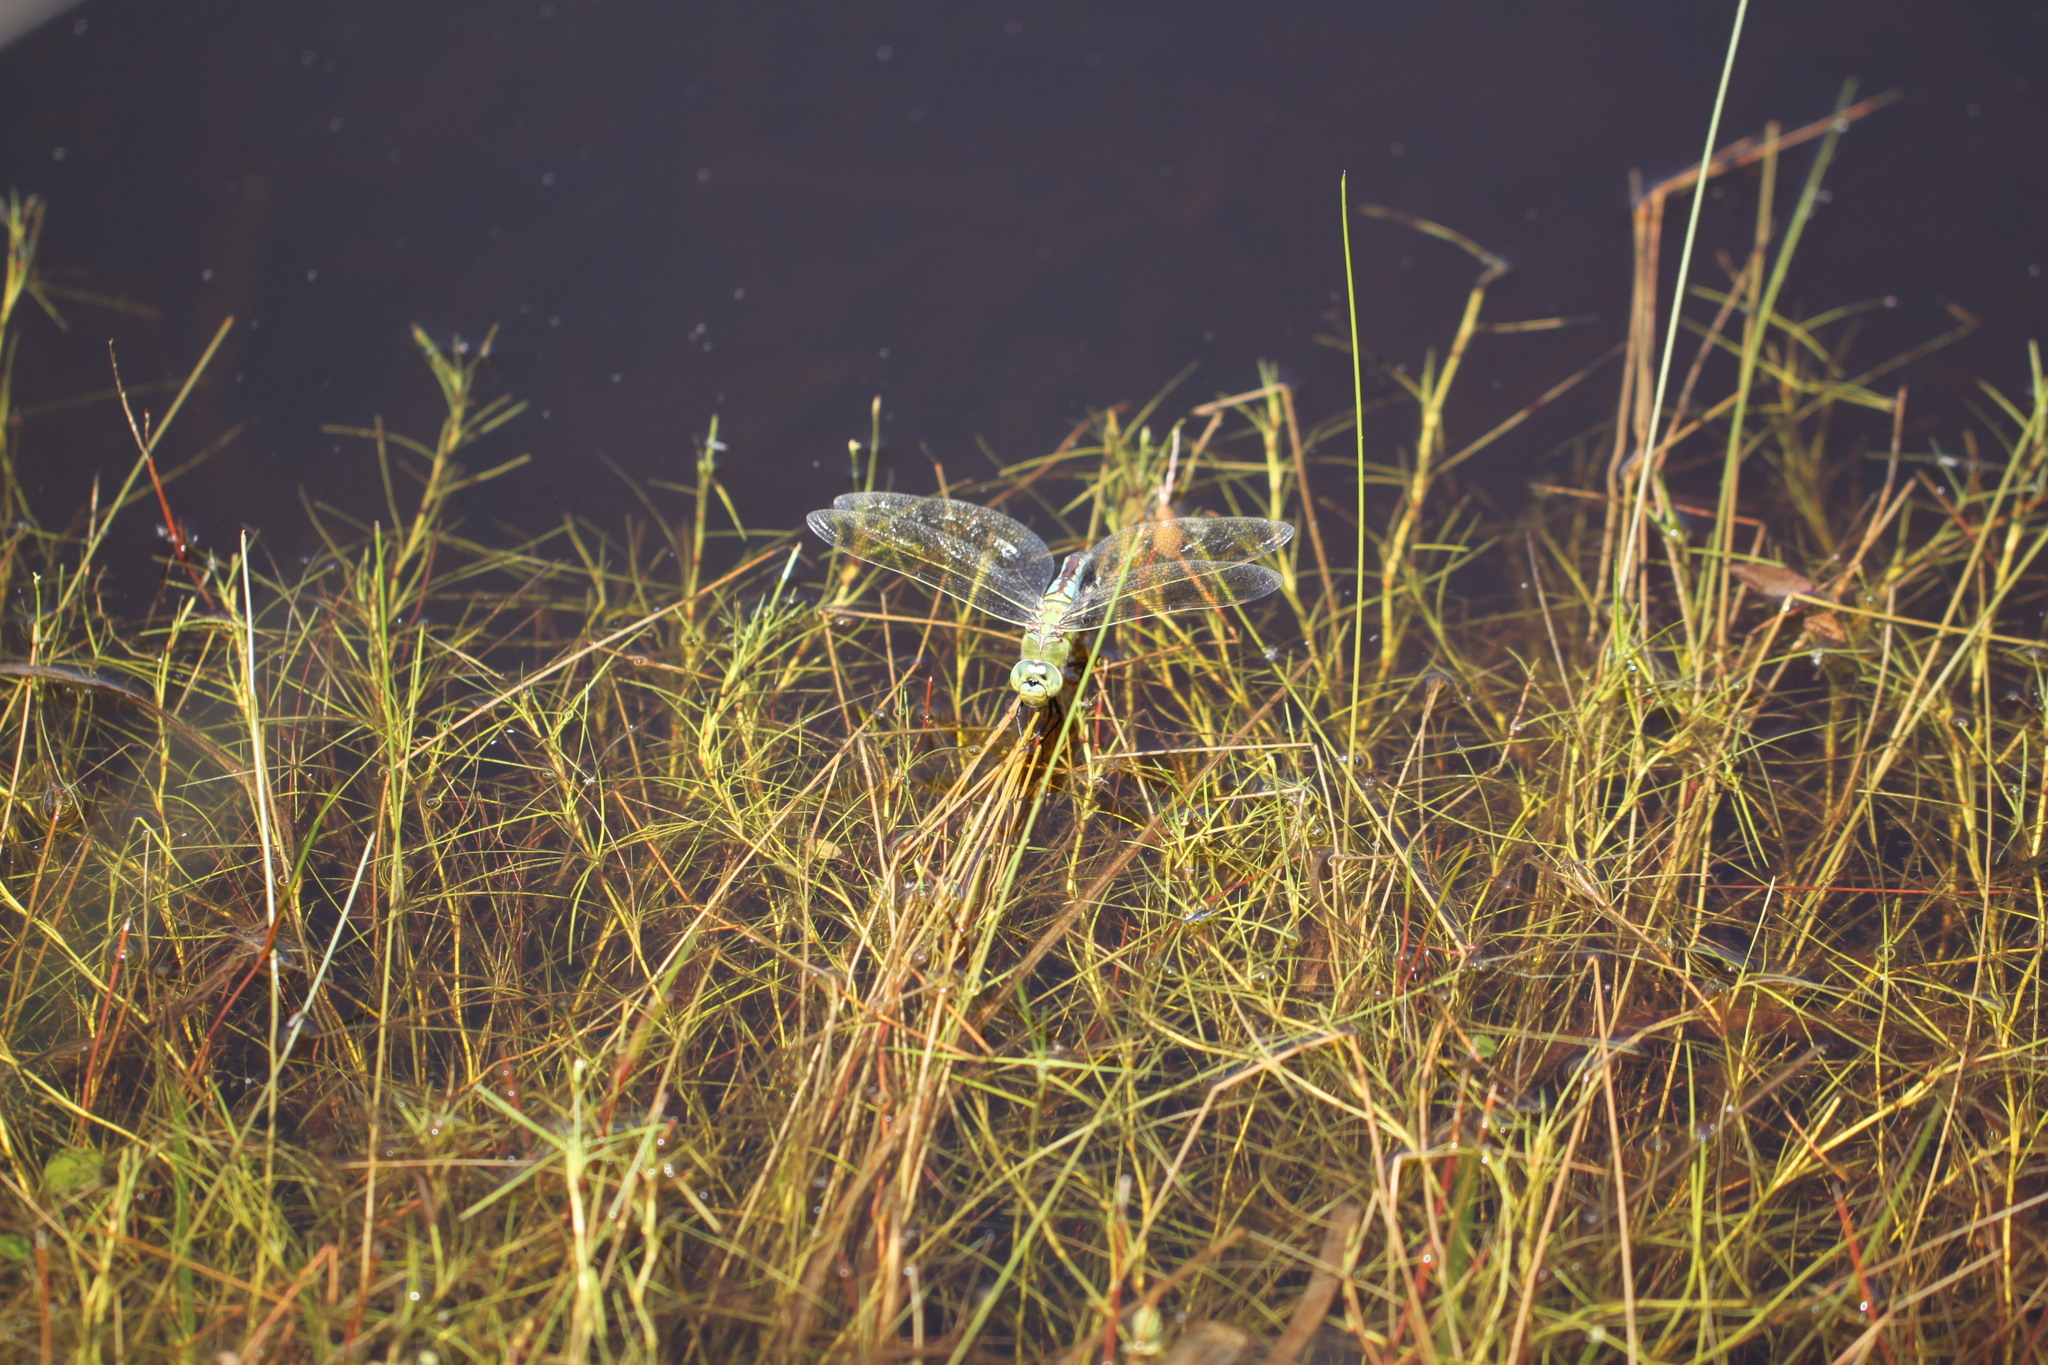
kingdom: Animalia
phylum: Arthropoda
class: Insecta
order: Odonata
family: Aeshnidae
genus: Anax
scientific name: Anax imperator
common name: Emperor dragonfly
